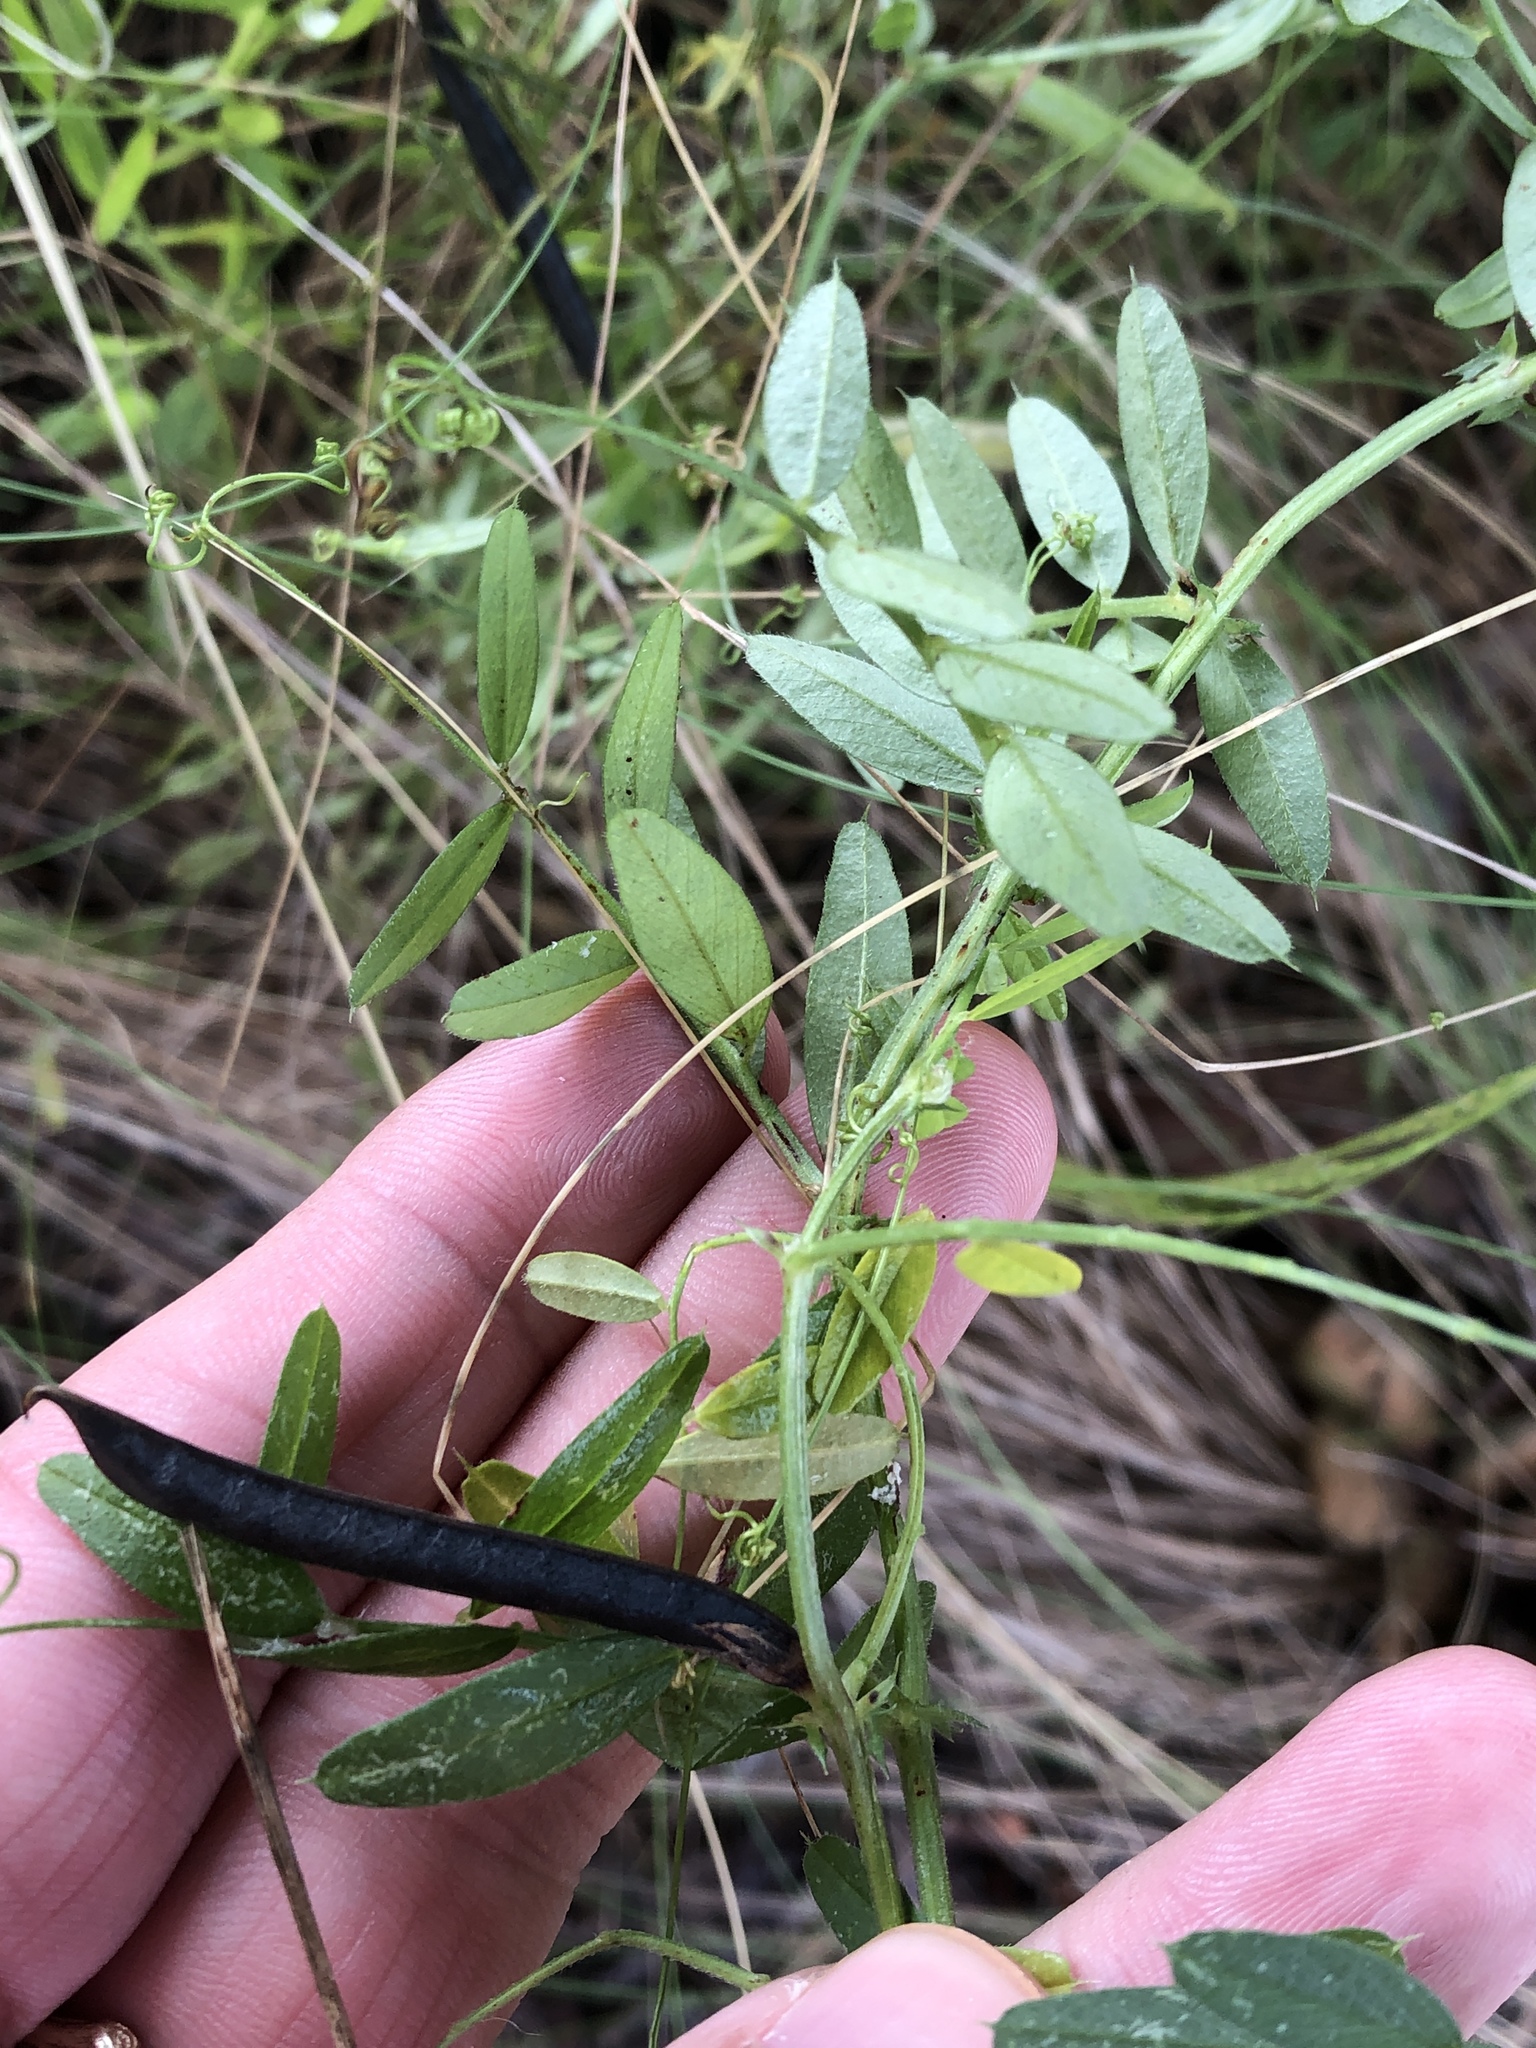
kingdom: Plantae
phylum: Tracheophyta
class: Magnoliopsida
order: Fabales
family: Fabaceae
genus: Vicia
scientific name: Vicia sativa
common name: Garden vetch
